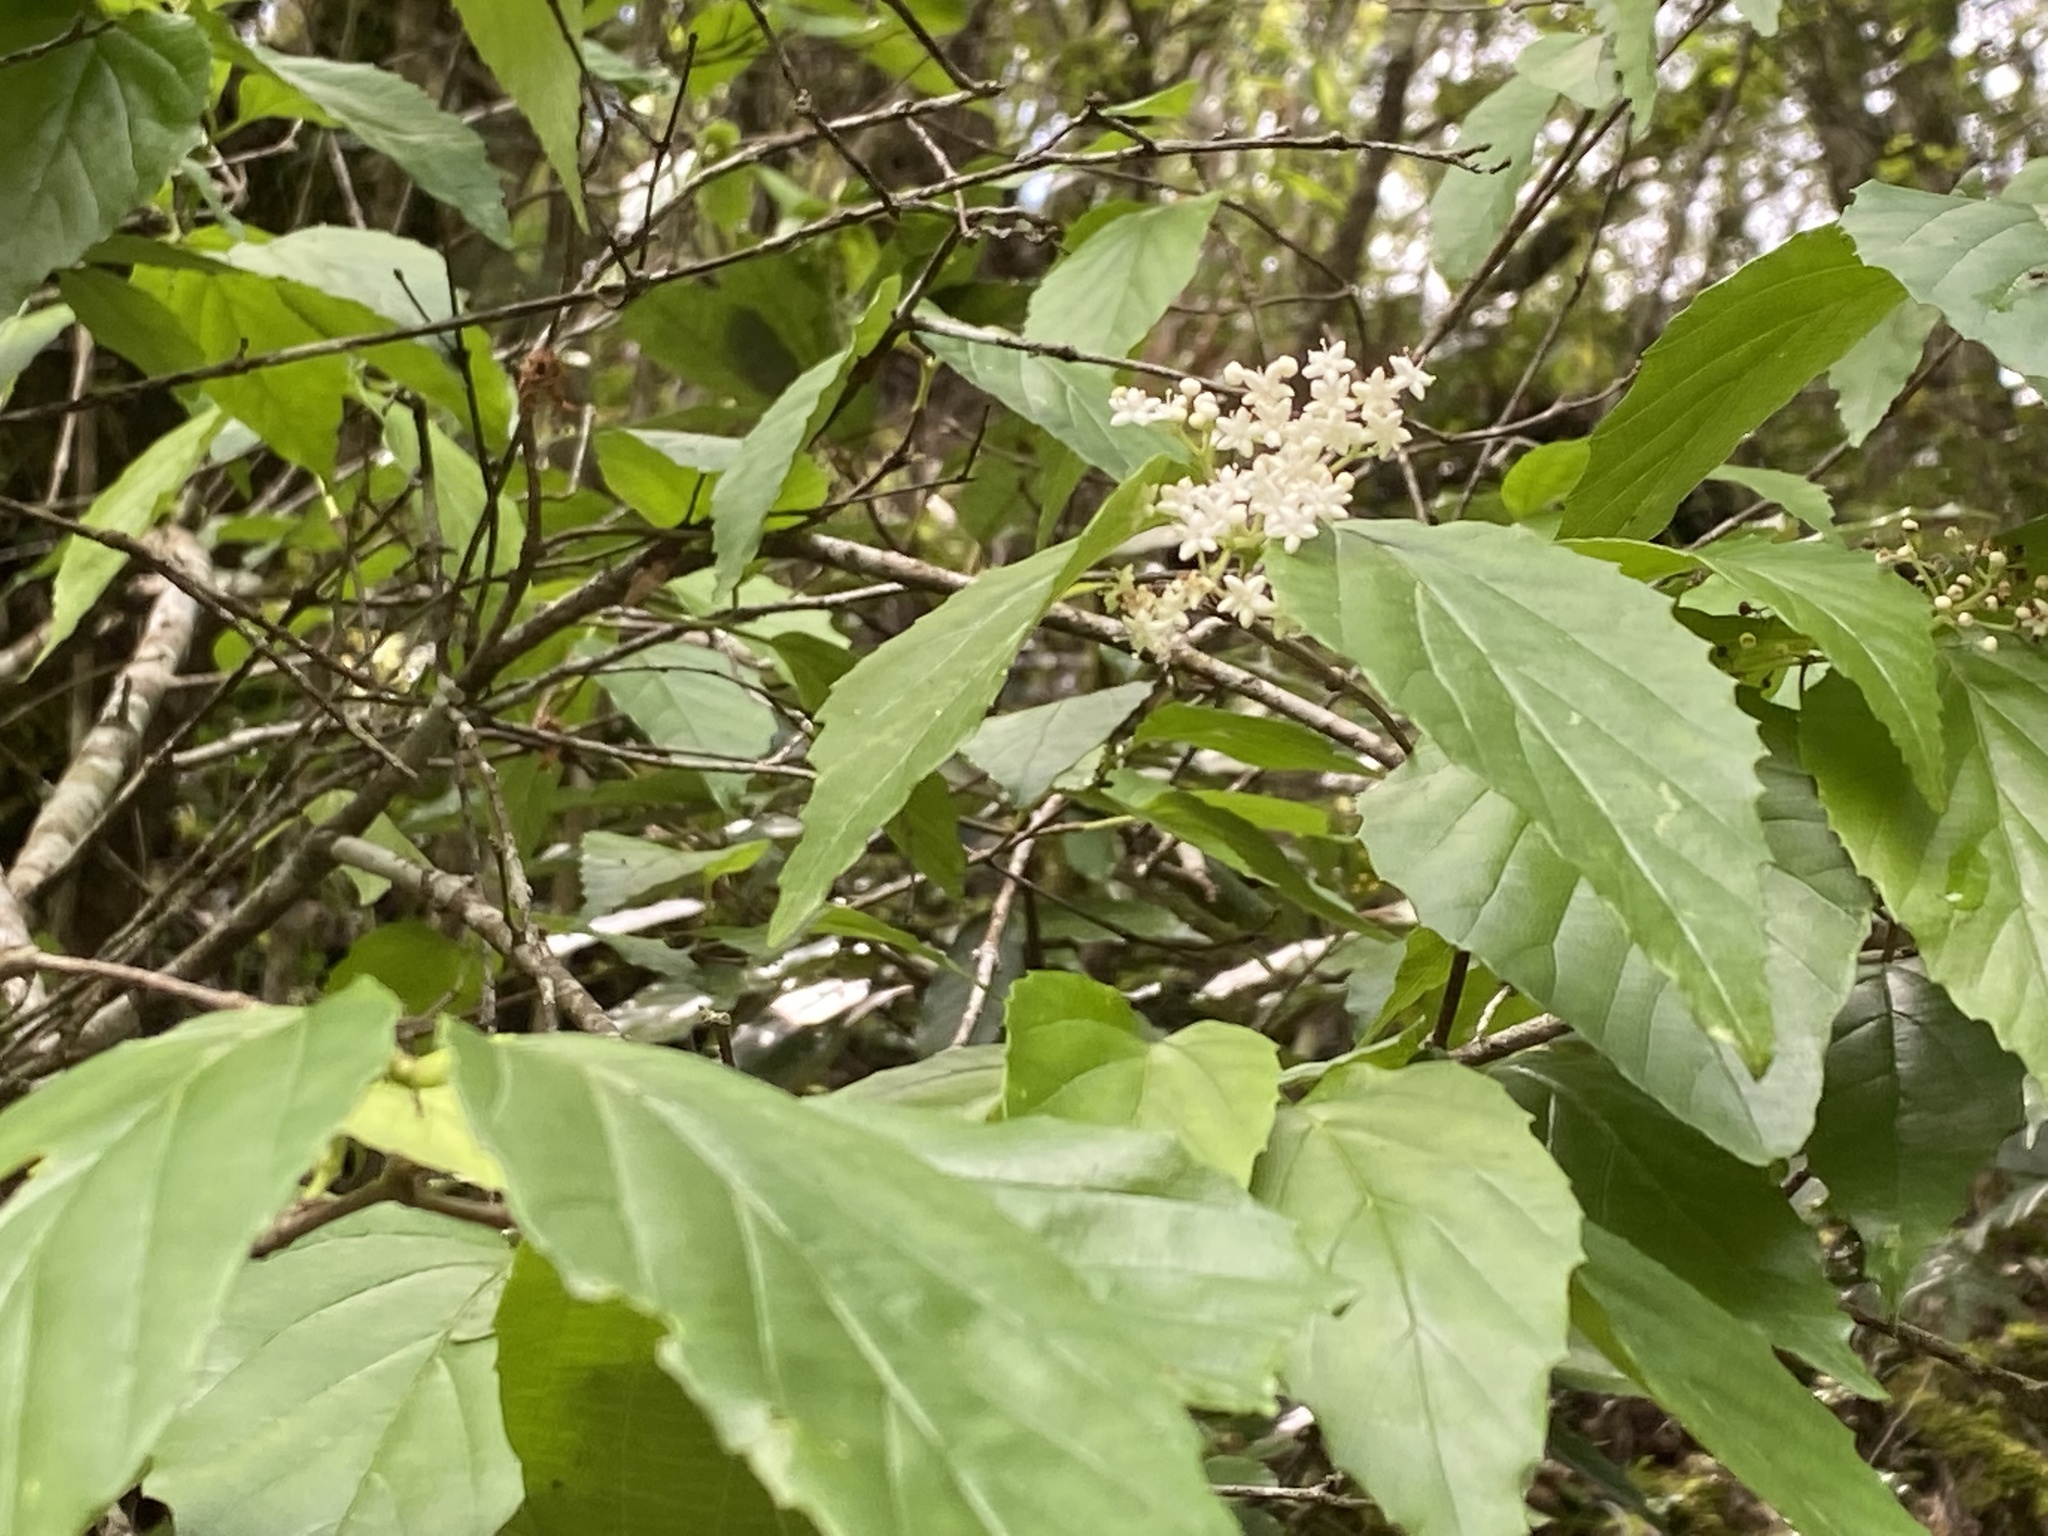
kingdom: Plantae
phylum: Tracheophyta
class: Magnoliopsida
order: Dipsacales
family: Viburnaceae
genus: Viburnum
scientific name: Viburnum luzonicum
